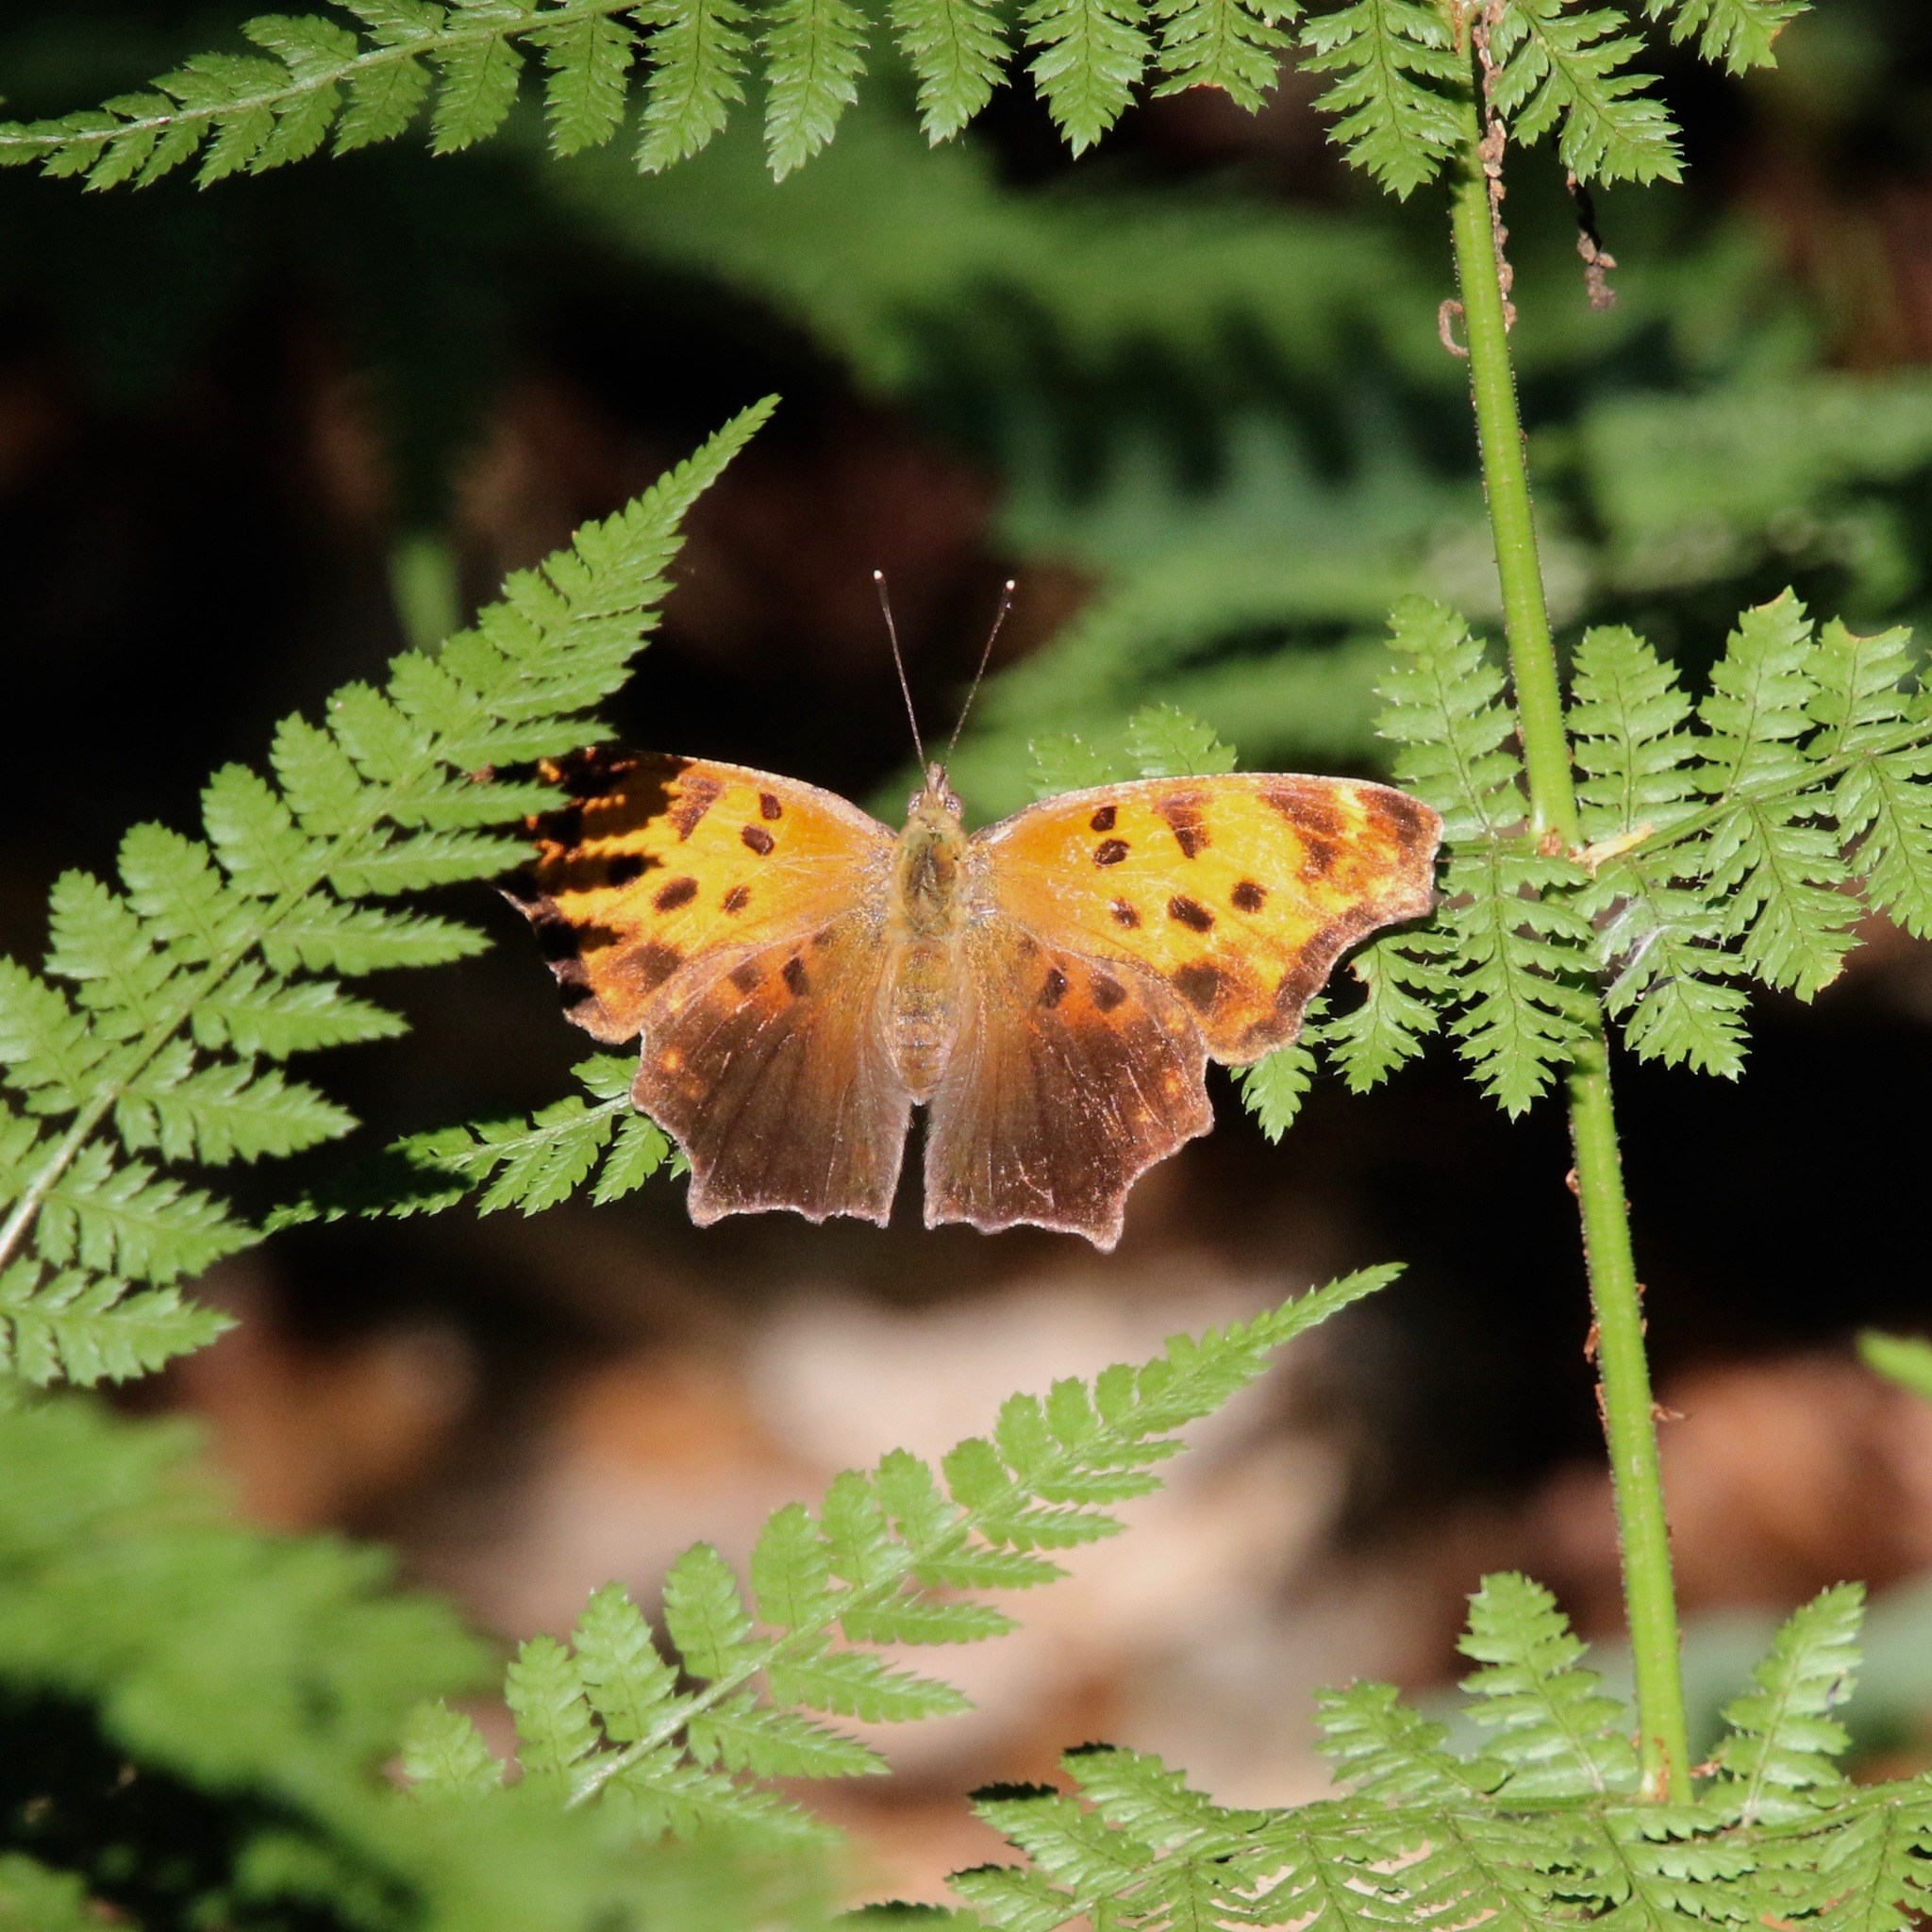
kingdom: Animalia
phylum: Arthropoda
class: Insecta
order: Lepidoptera
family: Nymphalidae
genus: Polygonia
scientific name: Polygonia comma
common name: Eastern comma
